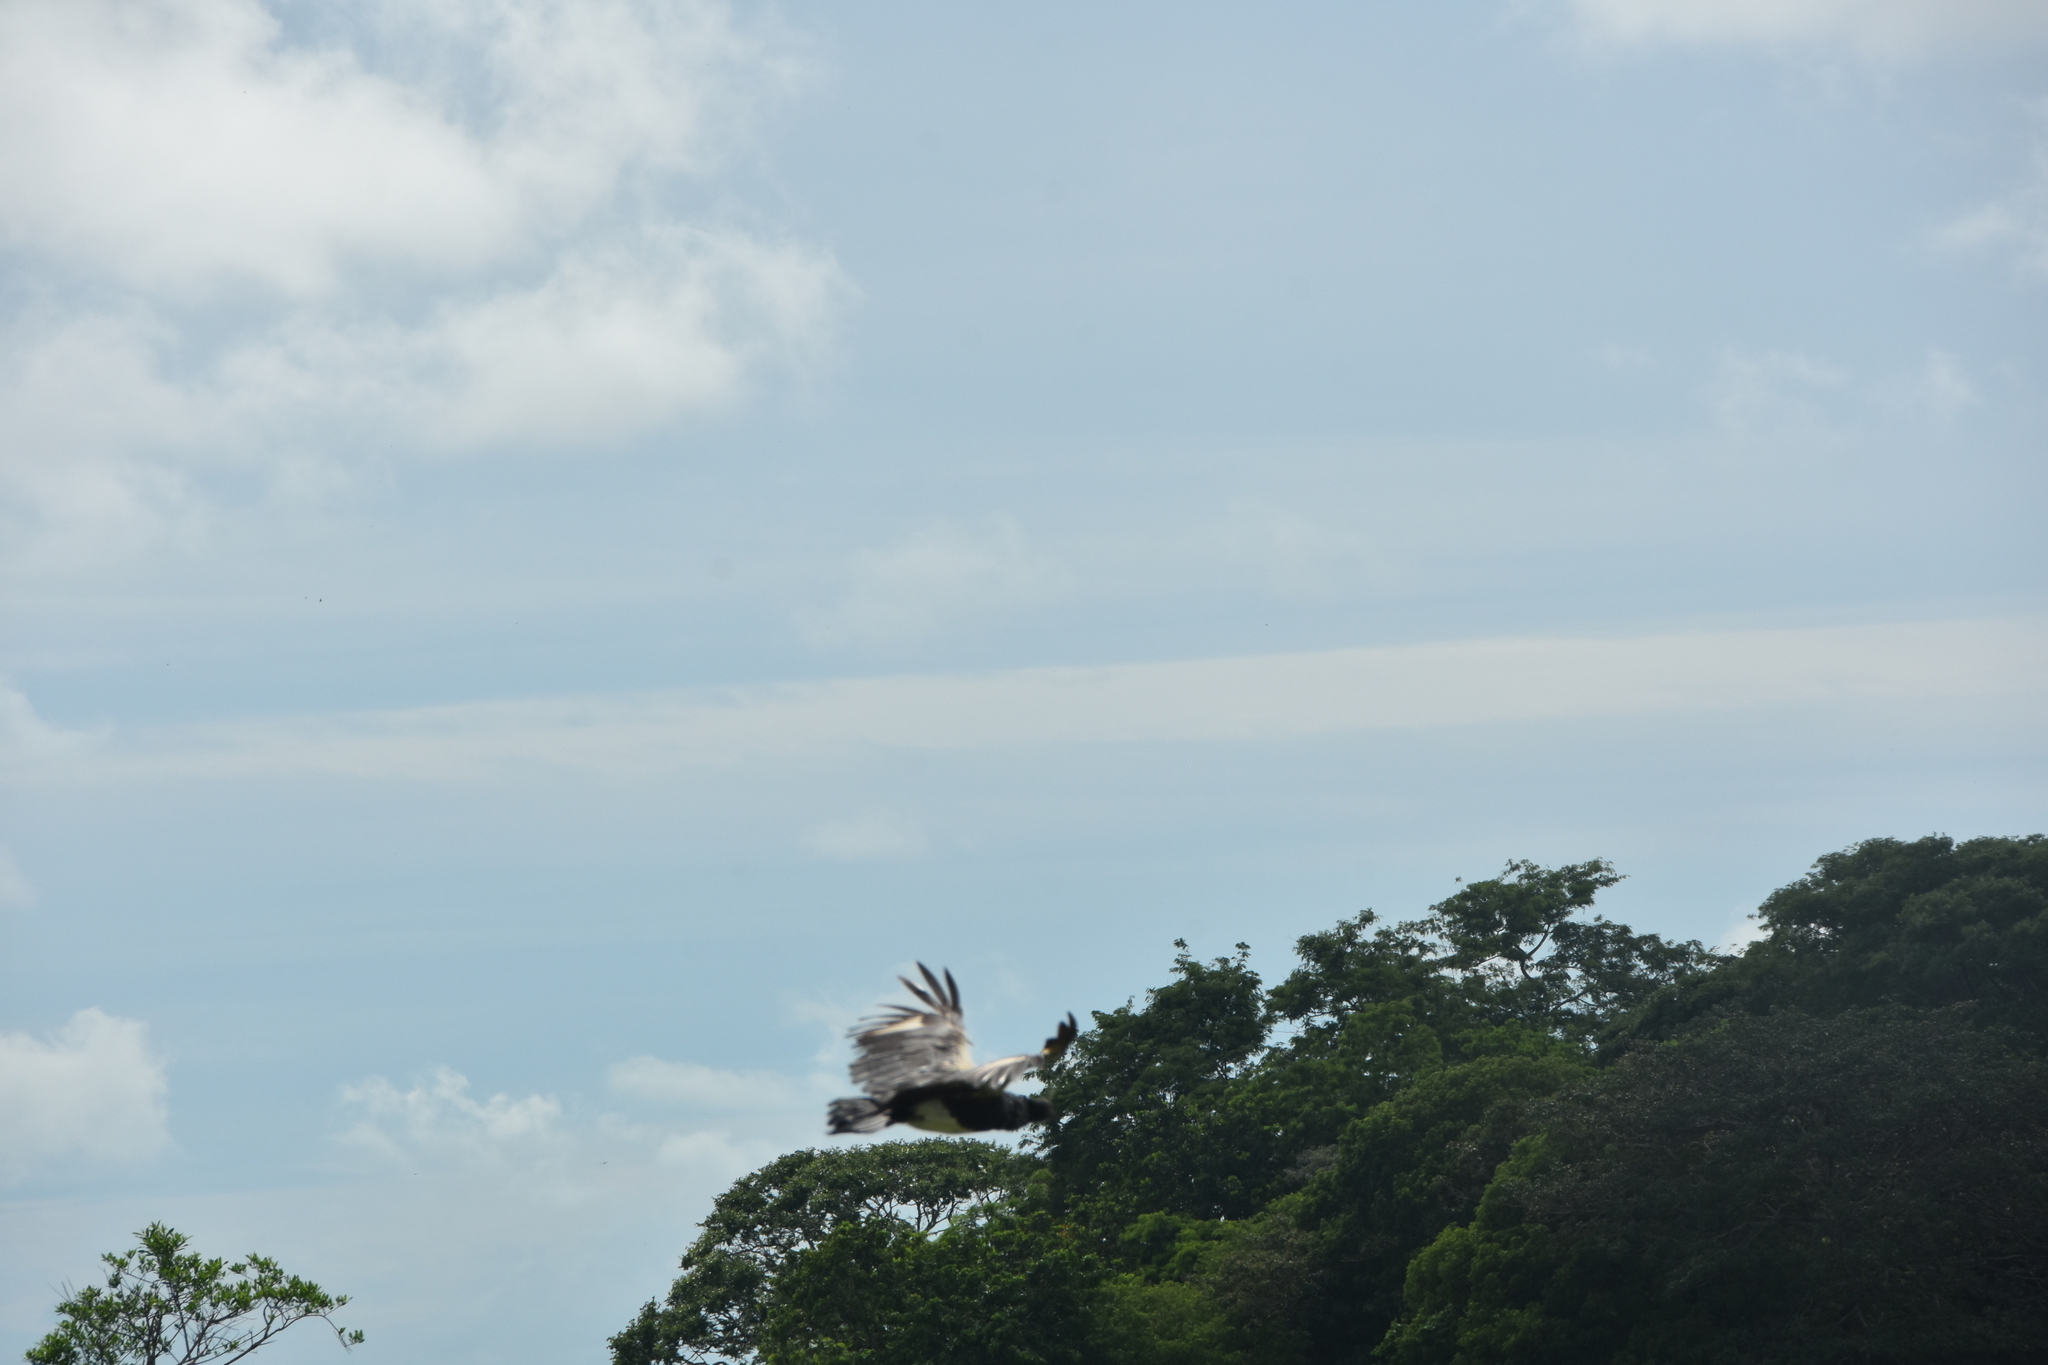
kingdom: Animalia
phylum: Chordata
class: Aves
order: Anseriformes
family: Anhimidae
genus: Anhima
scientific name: Anhima cornuta
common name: Horned screamer
